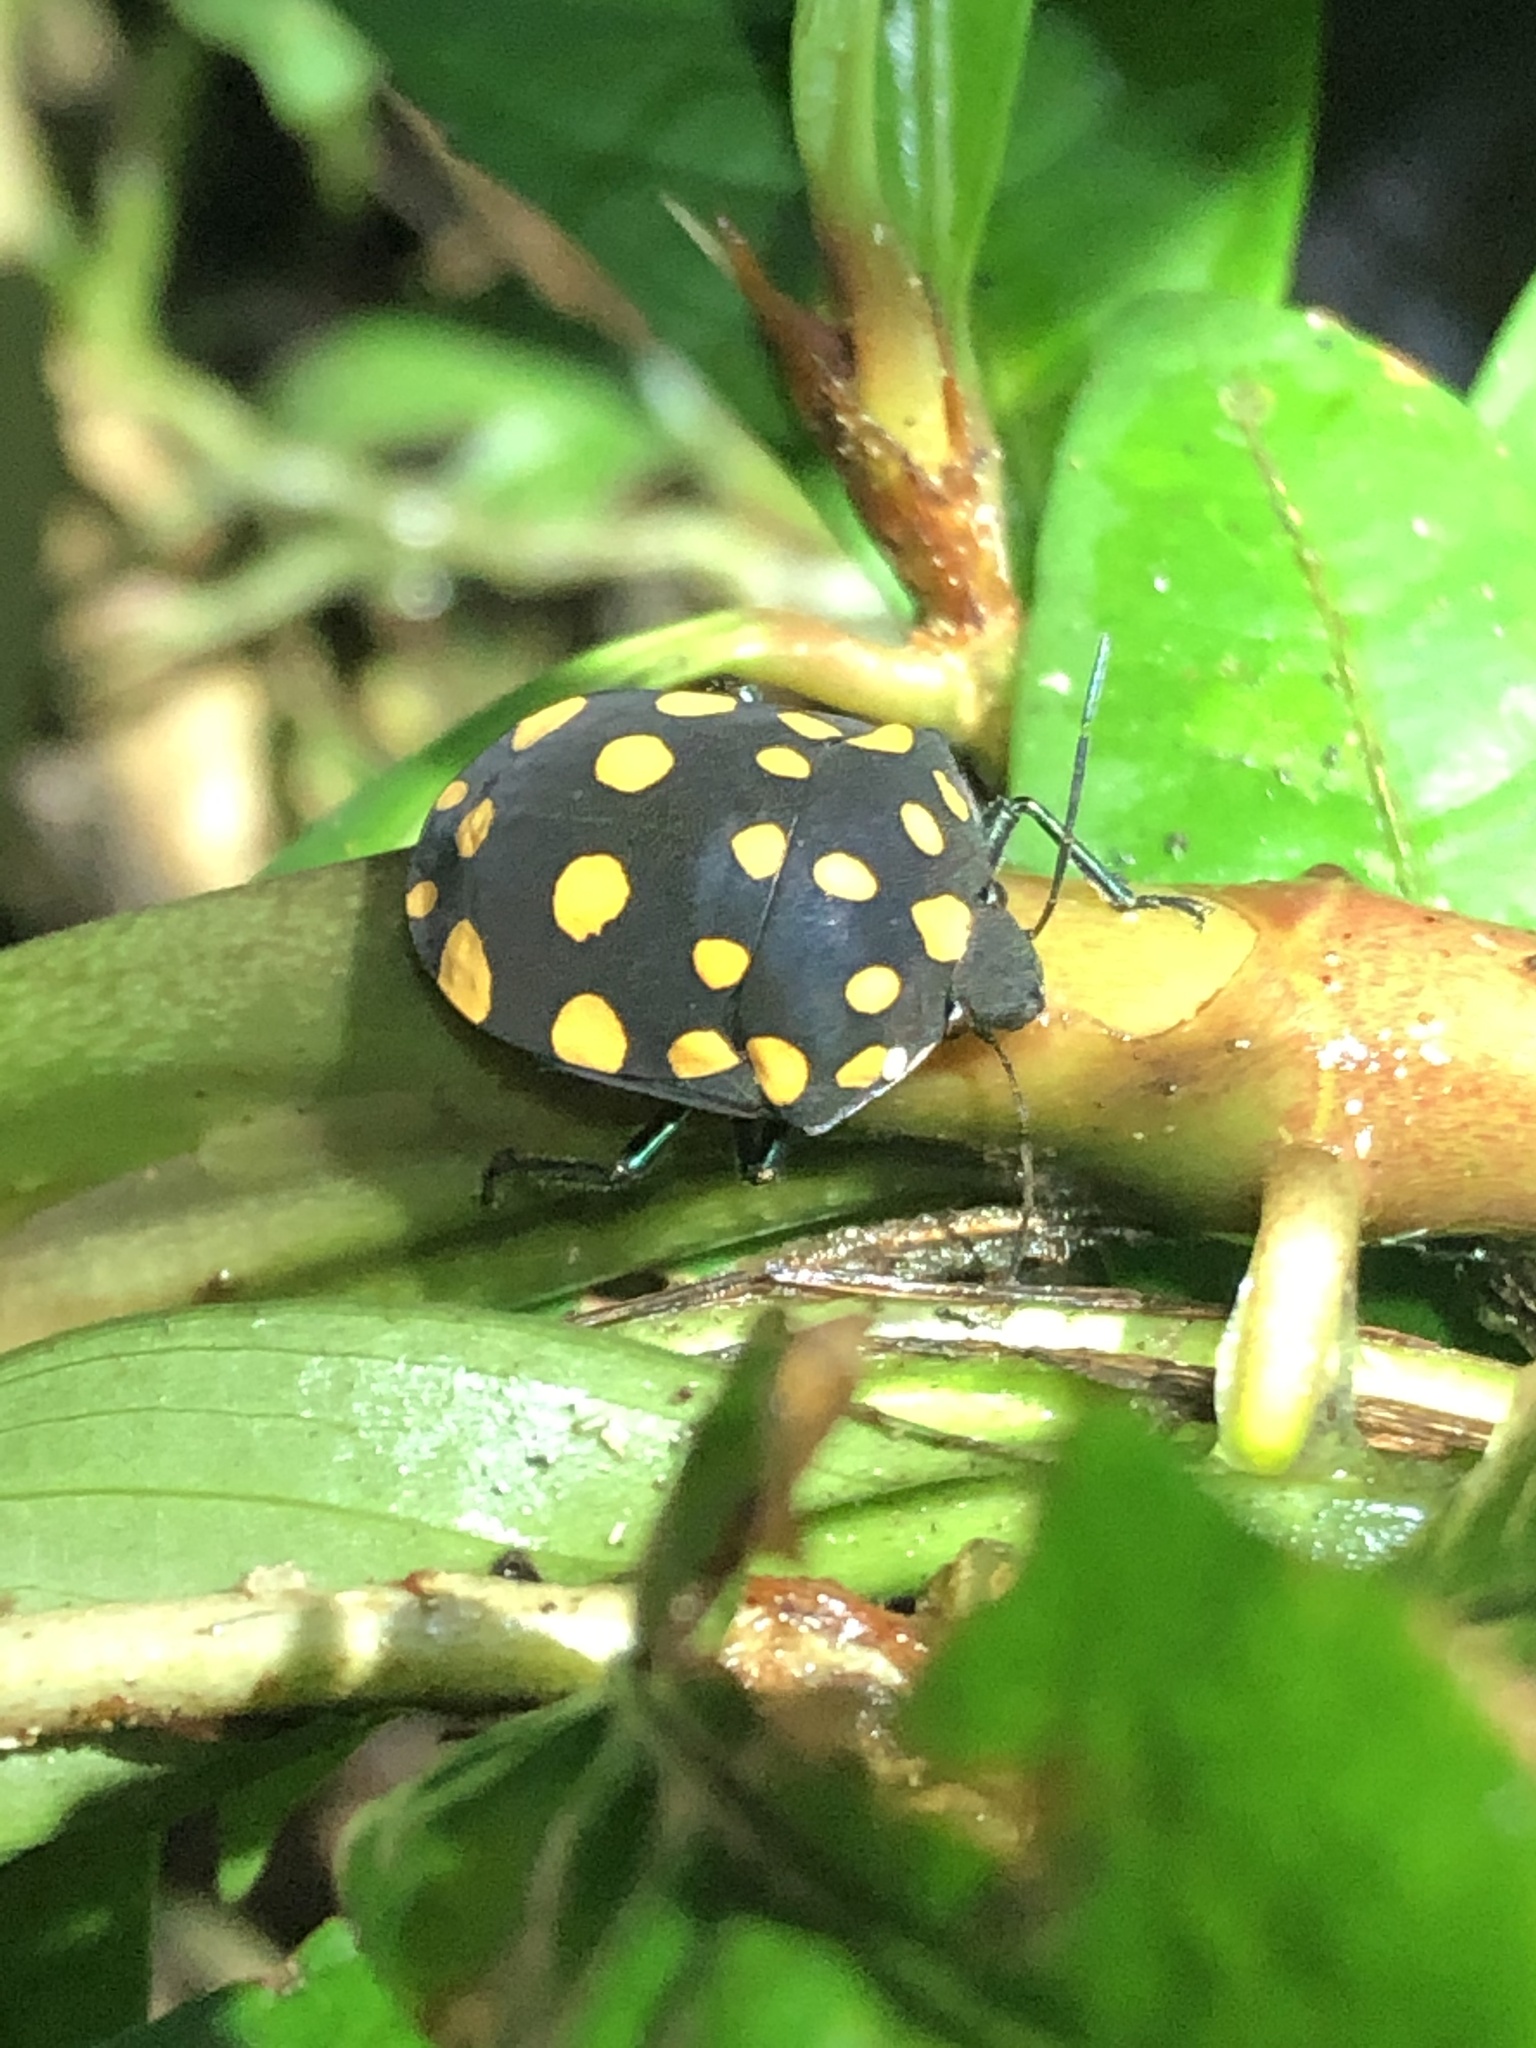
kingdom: Animalia
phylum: Arthropoda
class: Insecta
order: Hemiptera
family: Scutelleridae
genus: Pachycoris
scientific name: Pachycoris torridus
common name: Torrid jewel bug
